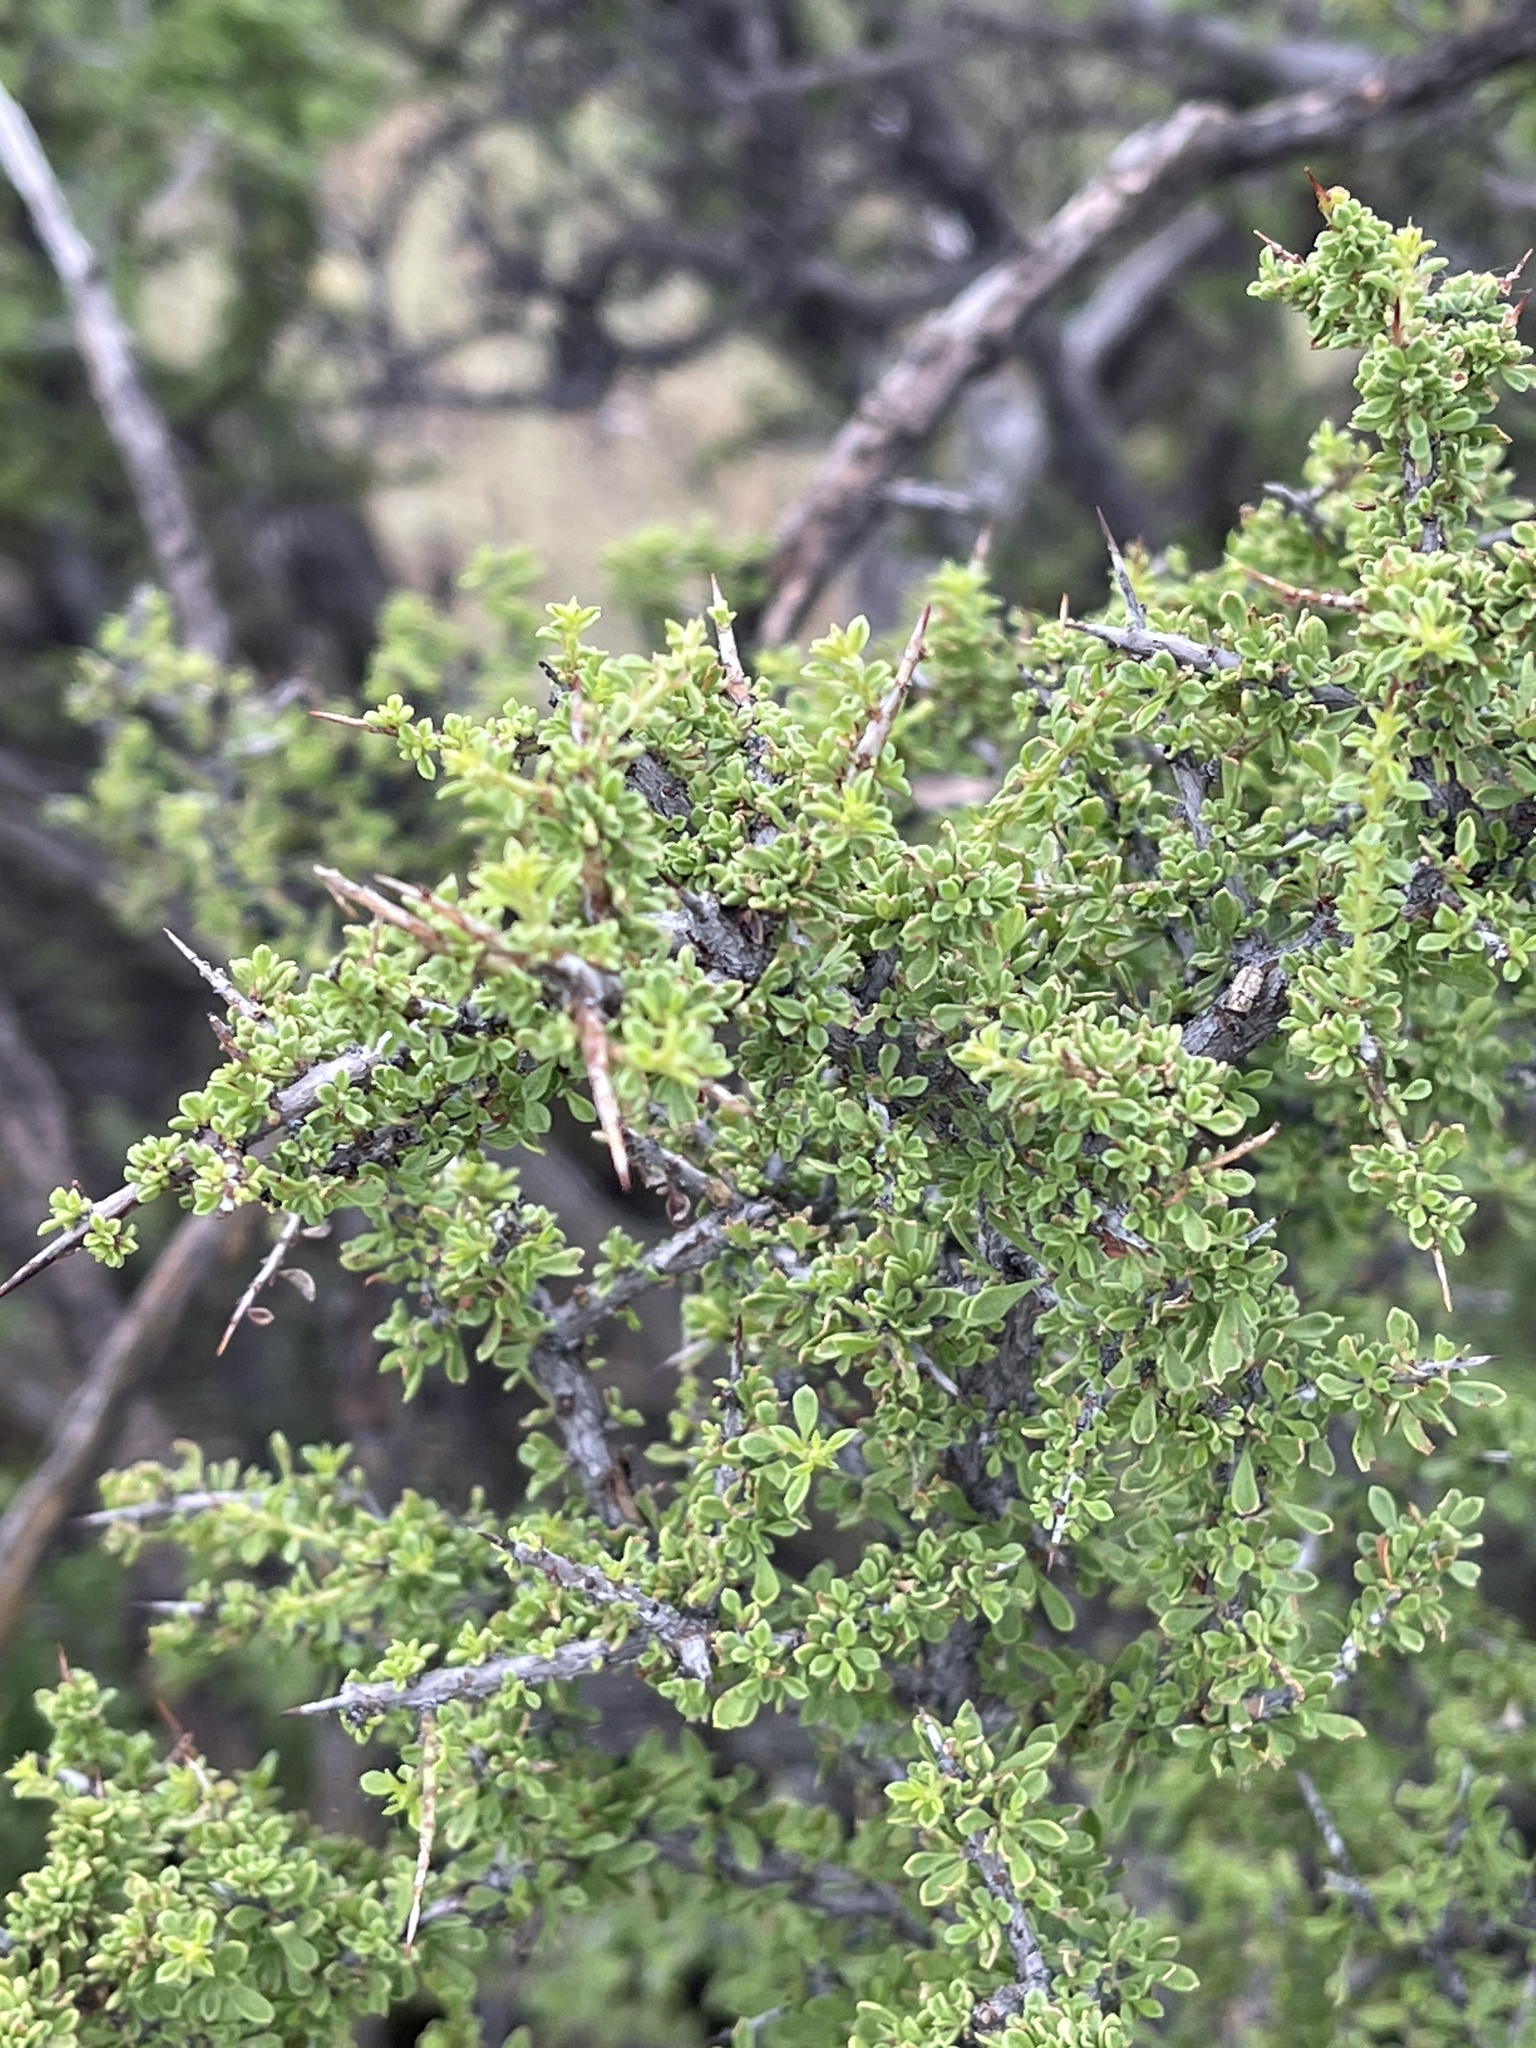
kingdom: Plantae
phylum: Tracheophyta
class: Magnoliopsida
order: Rosales
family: Rhamnaceae
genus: Condalia
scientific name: Condalia warnockii
